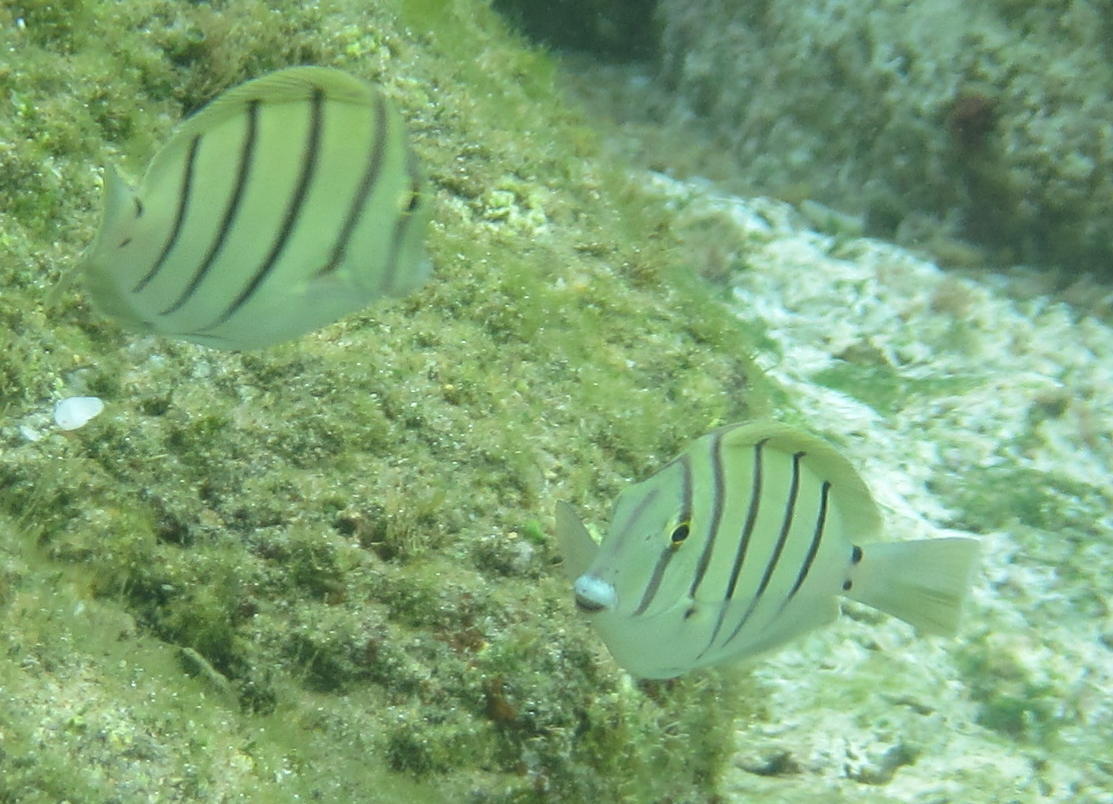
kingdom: Animalia
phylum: Chordata
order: Perciformes
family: Acanthuridae
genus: Acanthurus
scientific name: Acanthurus triostegus
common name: Convict surgeonfish
